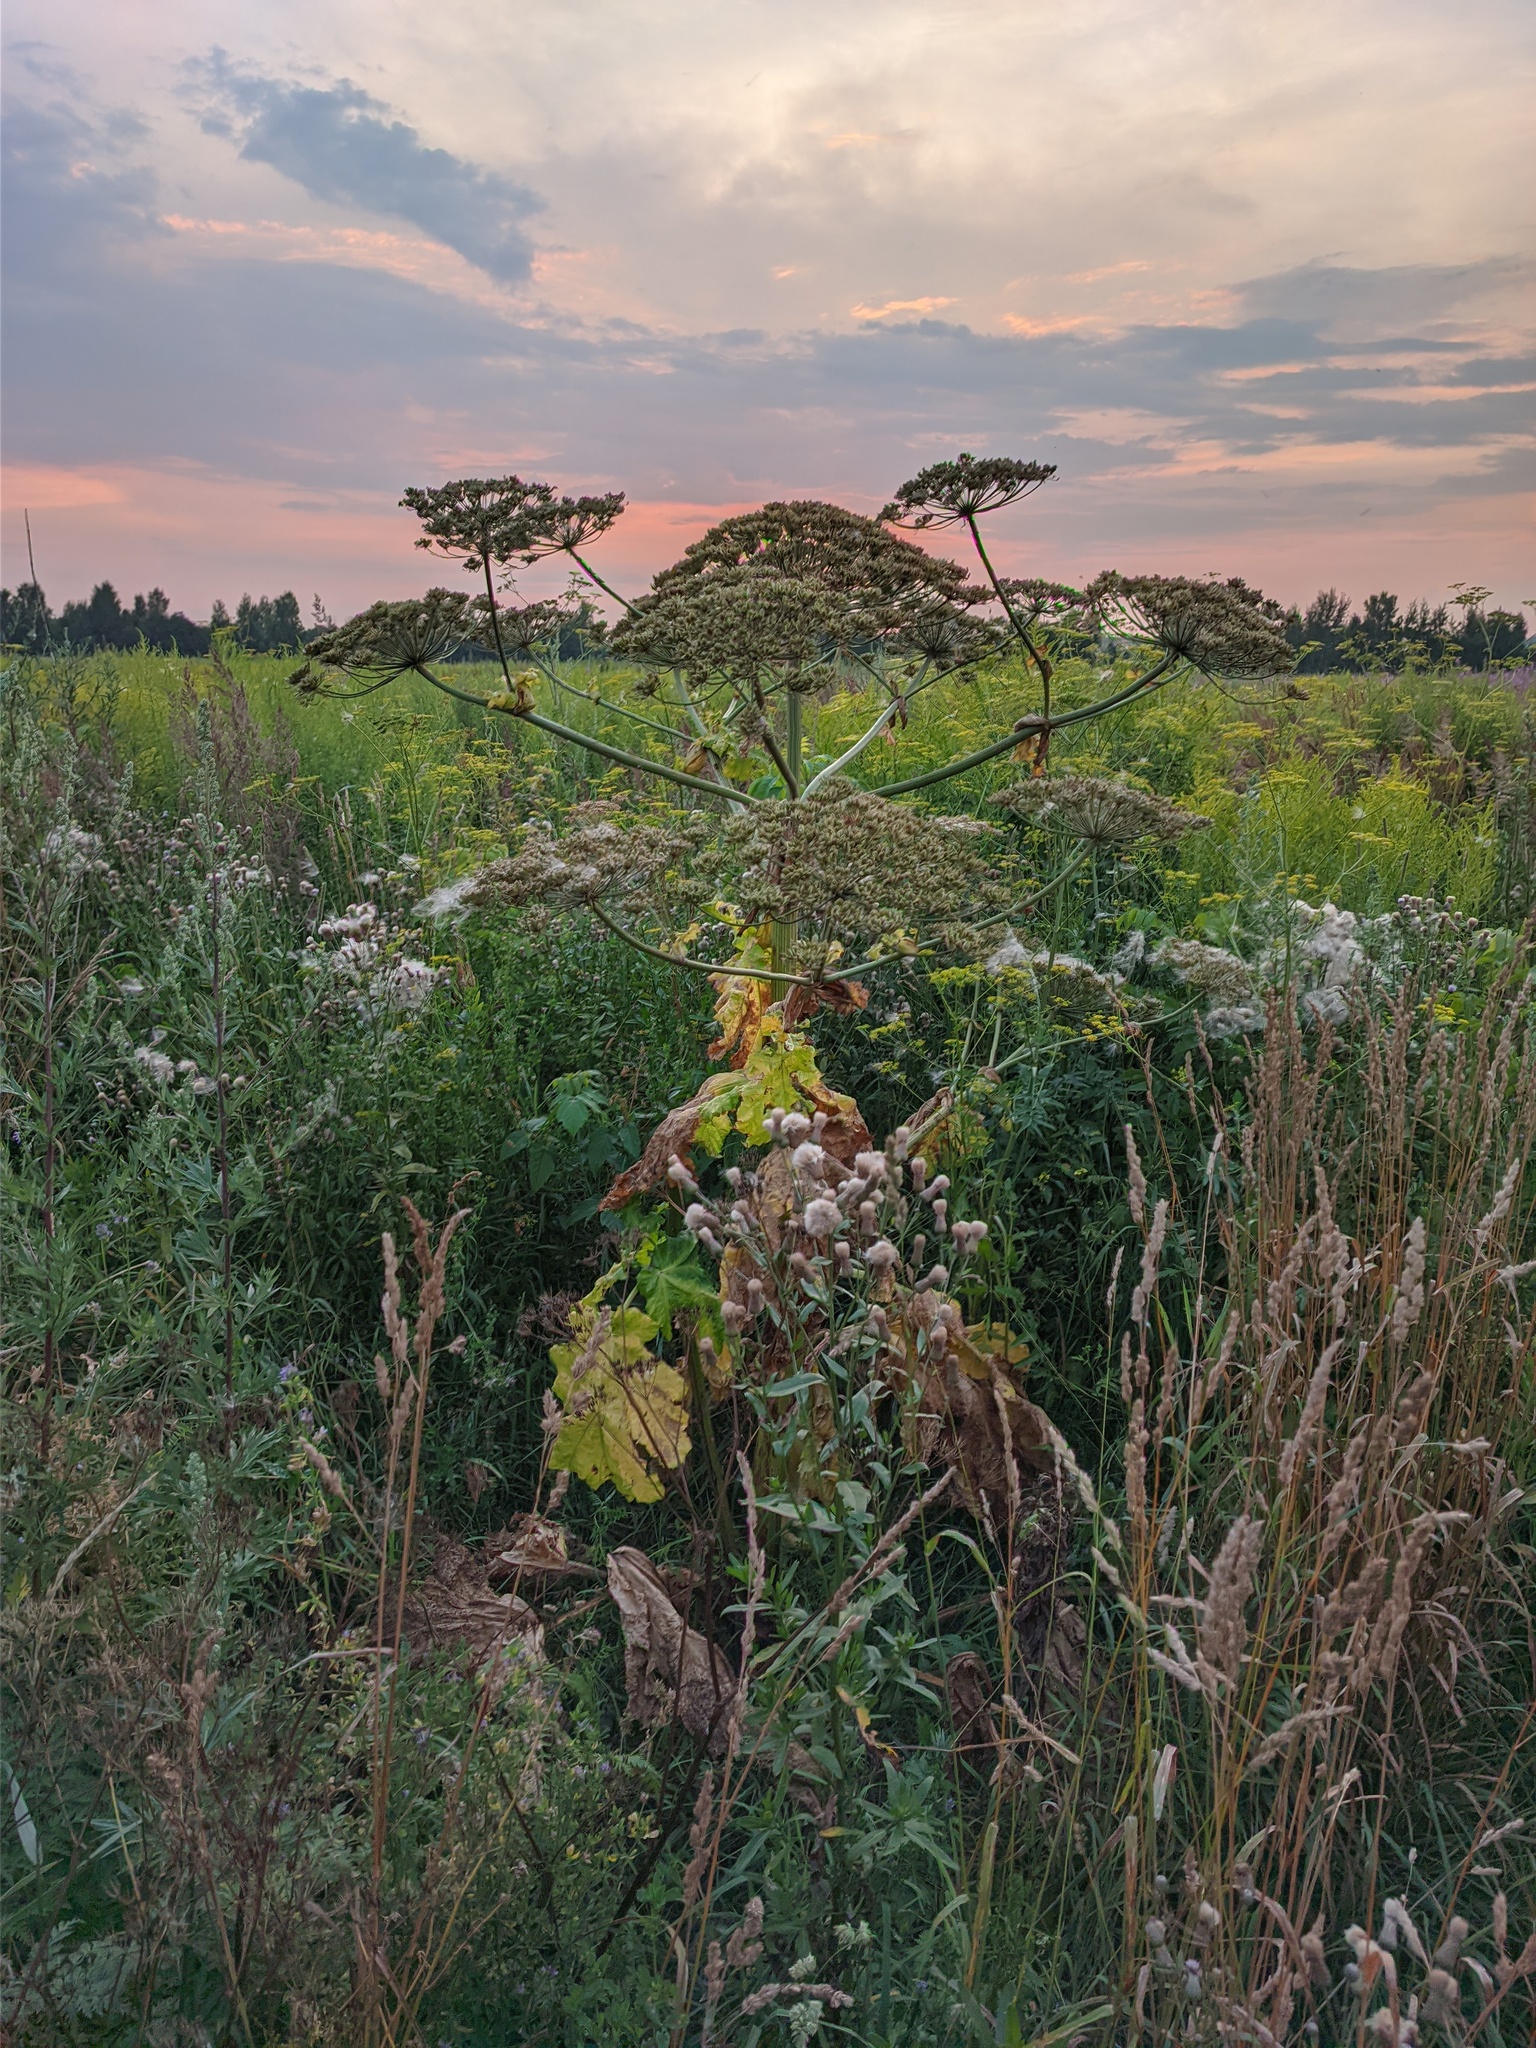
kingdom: Plantae
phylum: Tracheophyta
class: Magnoliopsida
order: Apiales
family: Apiaceae
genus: Heracleum
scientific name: Heracleum sosnowskyi
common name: Sosnowsky's hogweed
